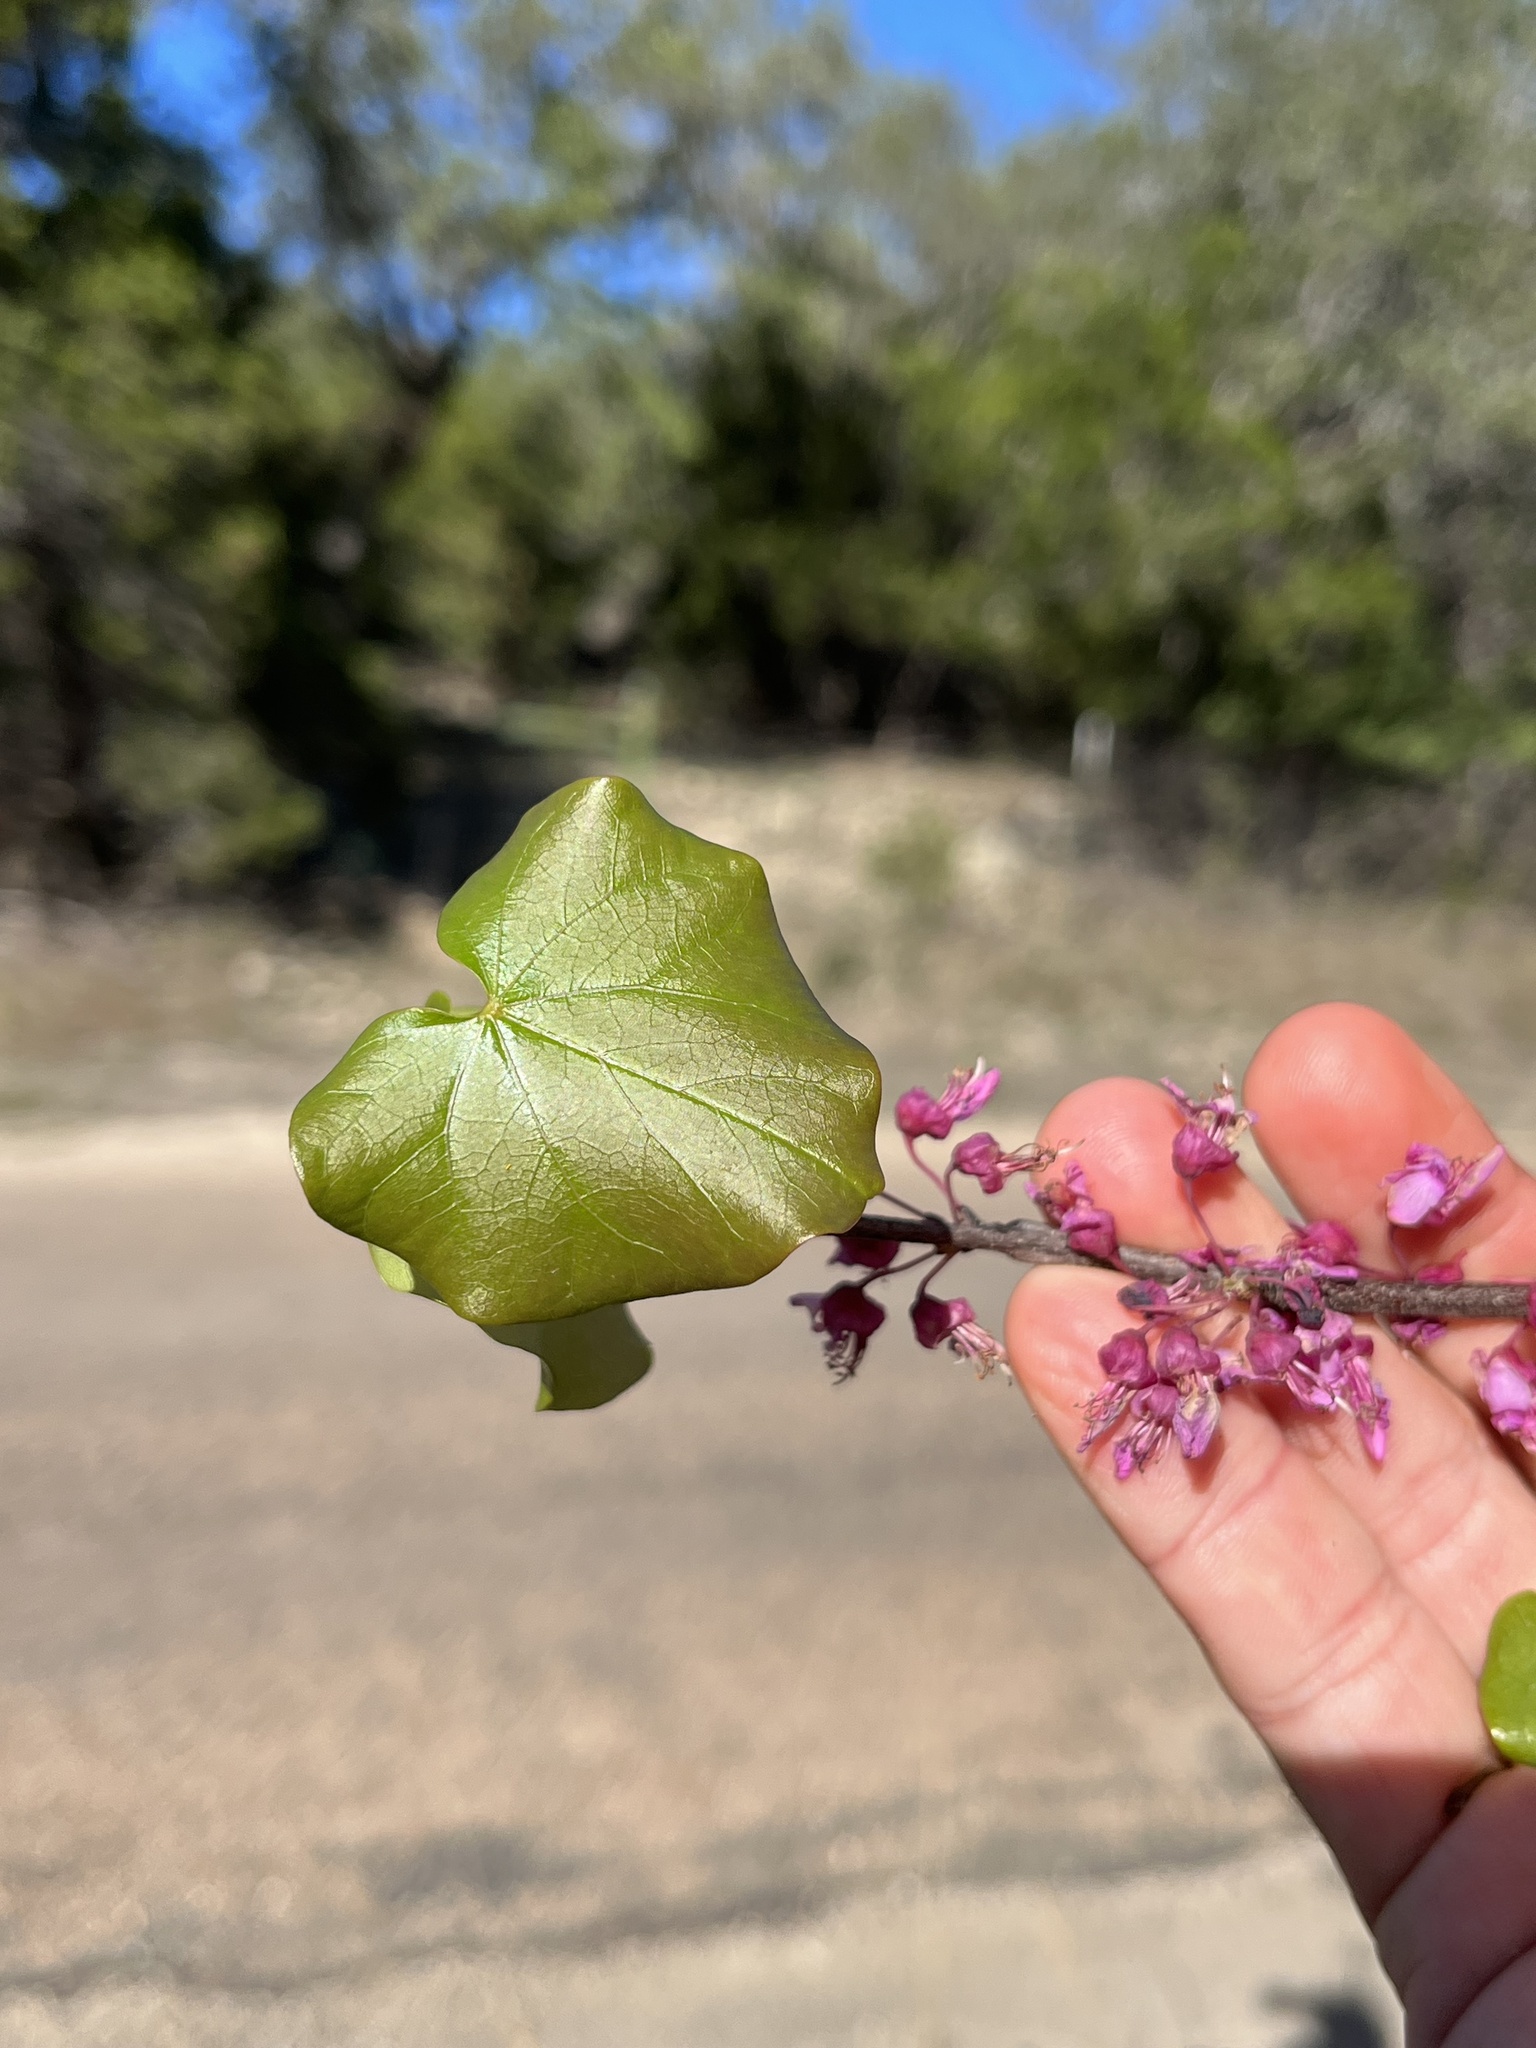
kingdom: Plantae
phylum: Tracheophyta
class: Magnoliopsida
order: Fabales
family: Fabaceae
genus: Cercis
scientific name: Cercis canadensis
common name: Eastern redbud
